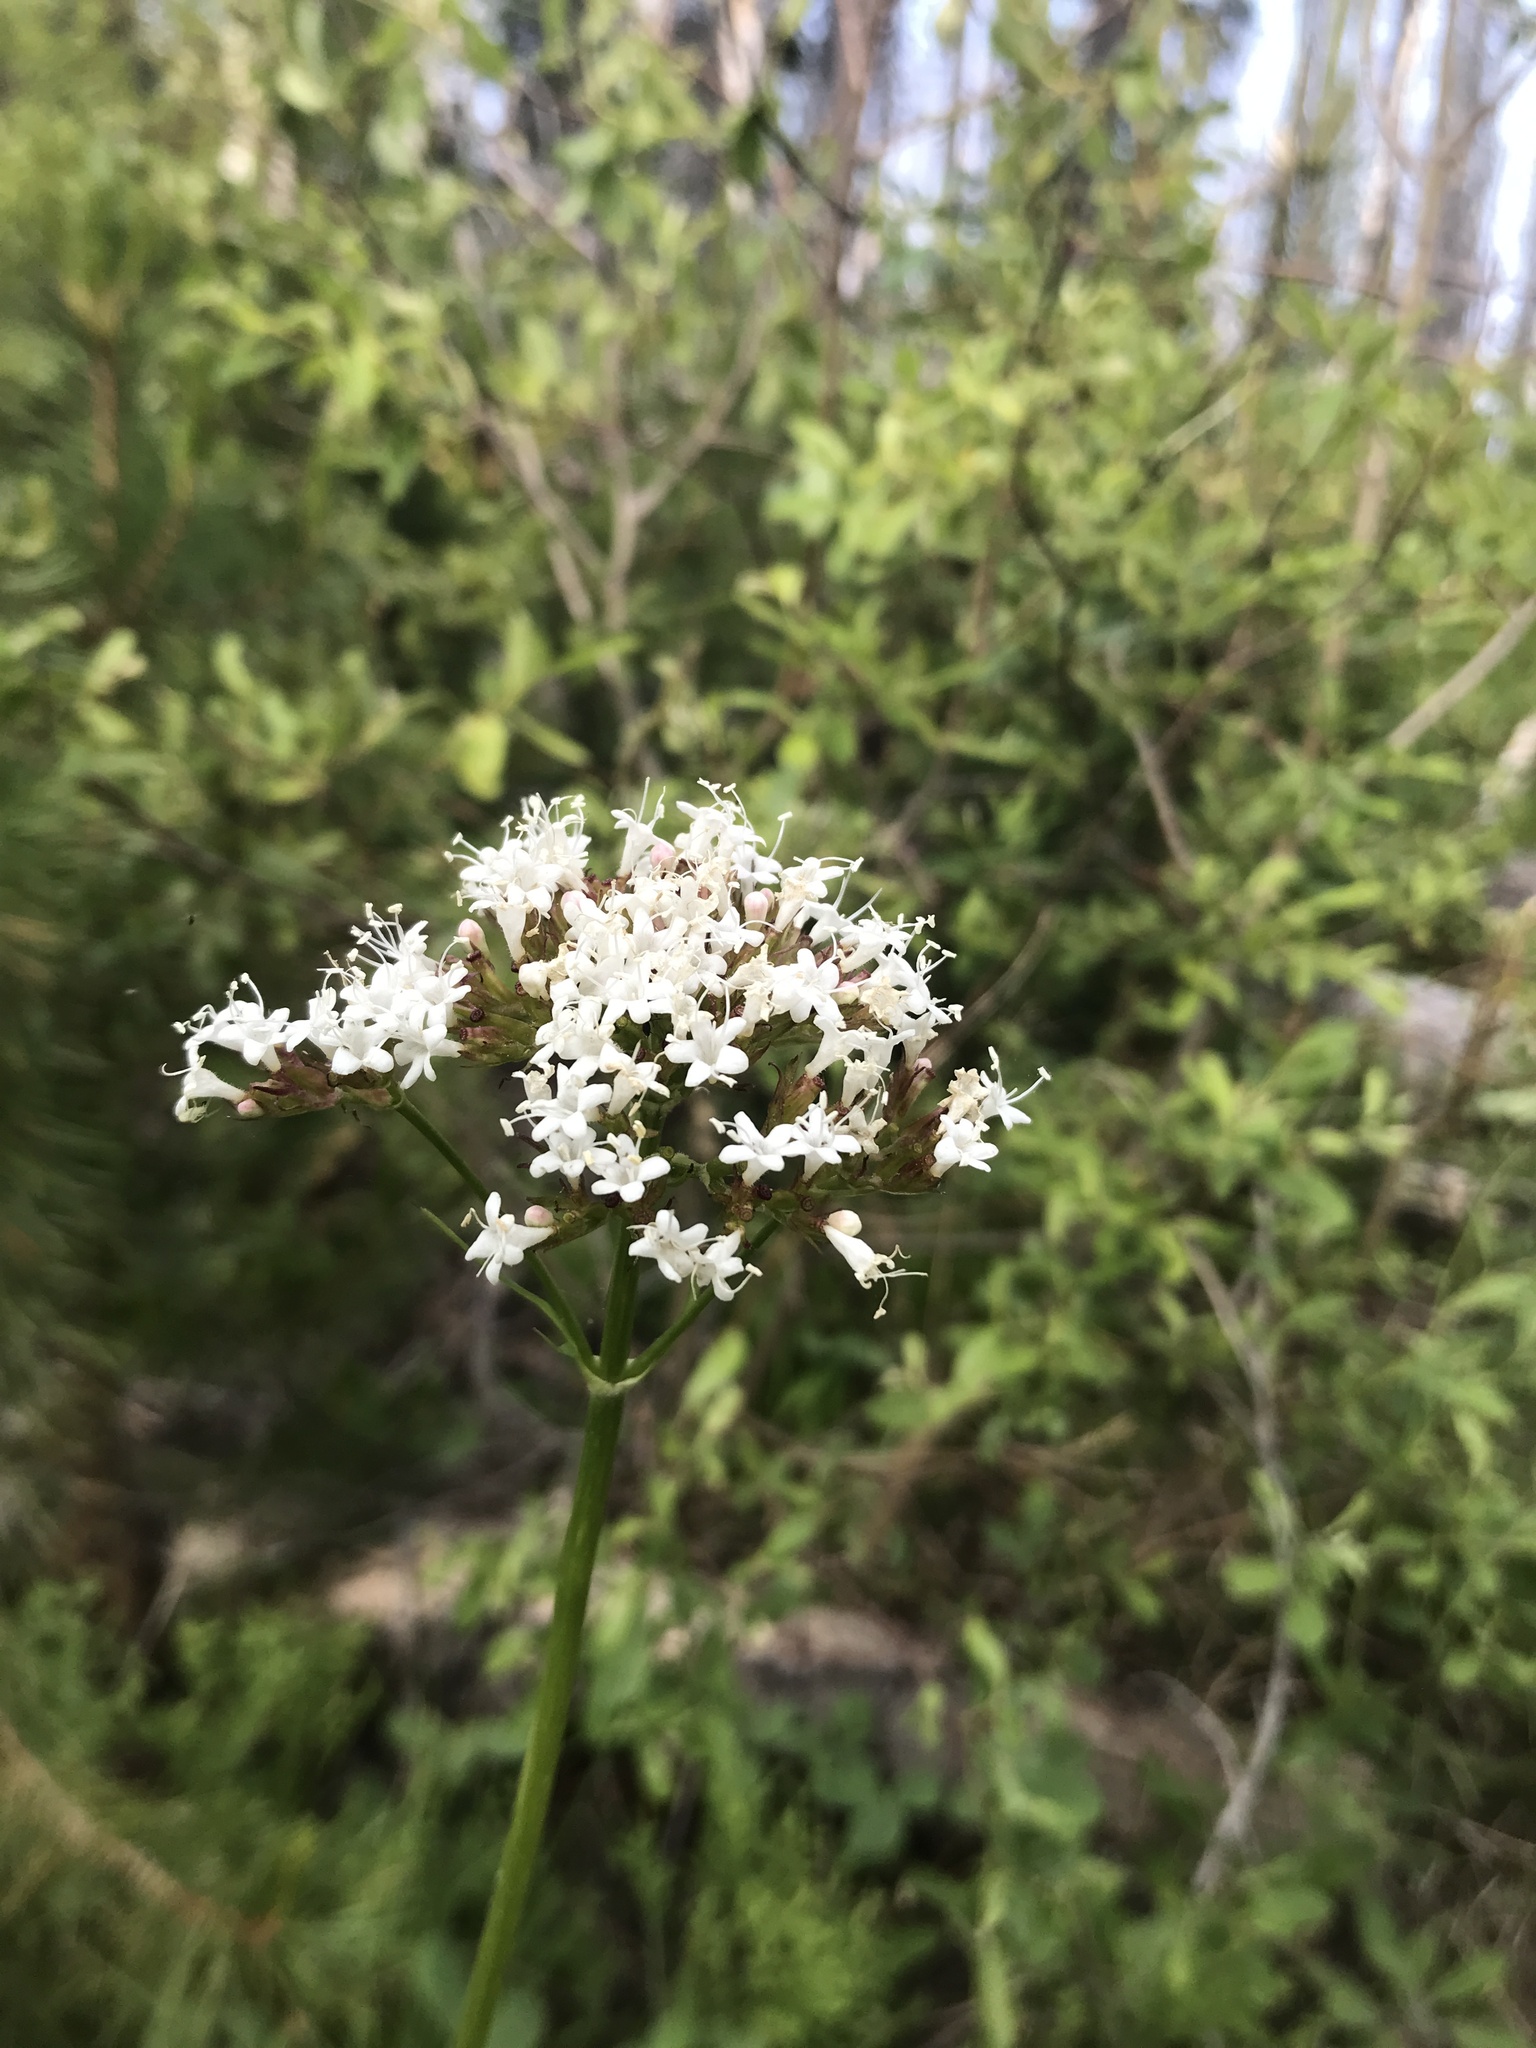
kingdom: Plantae
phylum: Tracheophyta
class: Magnoliopsida
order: Dipsacales
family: Caprifoliaceae
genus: Valeriana
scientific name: Valeriana sitchensis
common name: Pacific valerian
